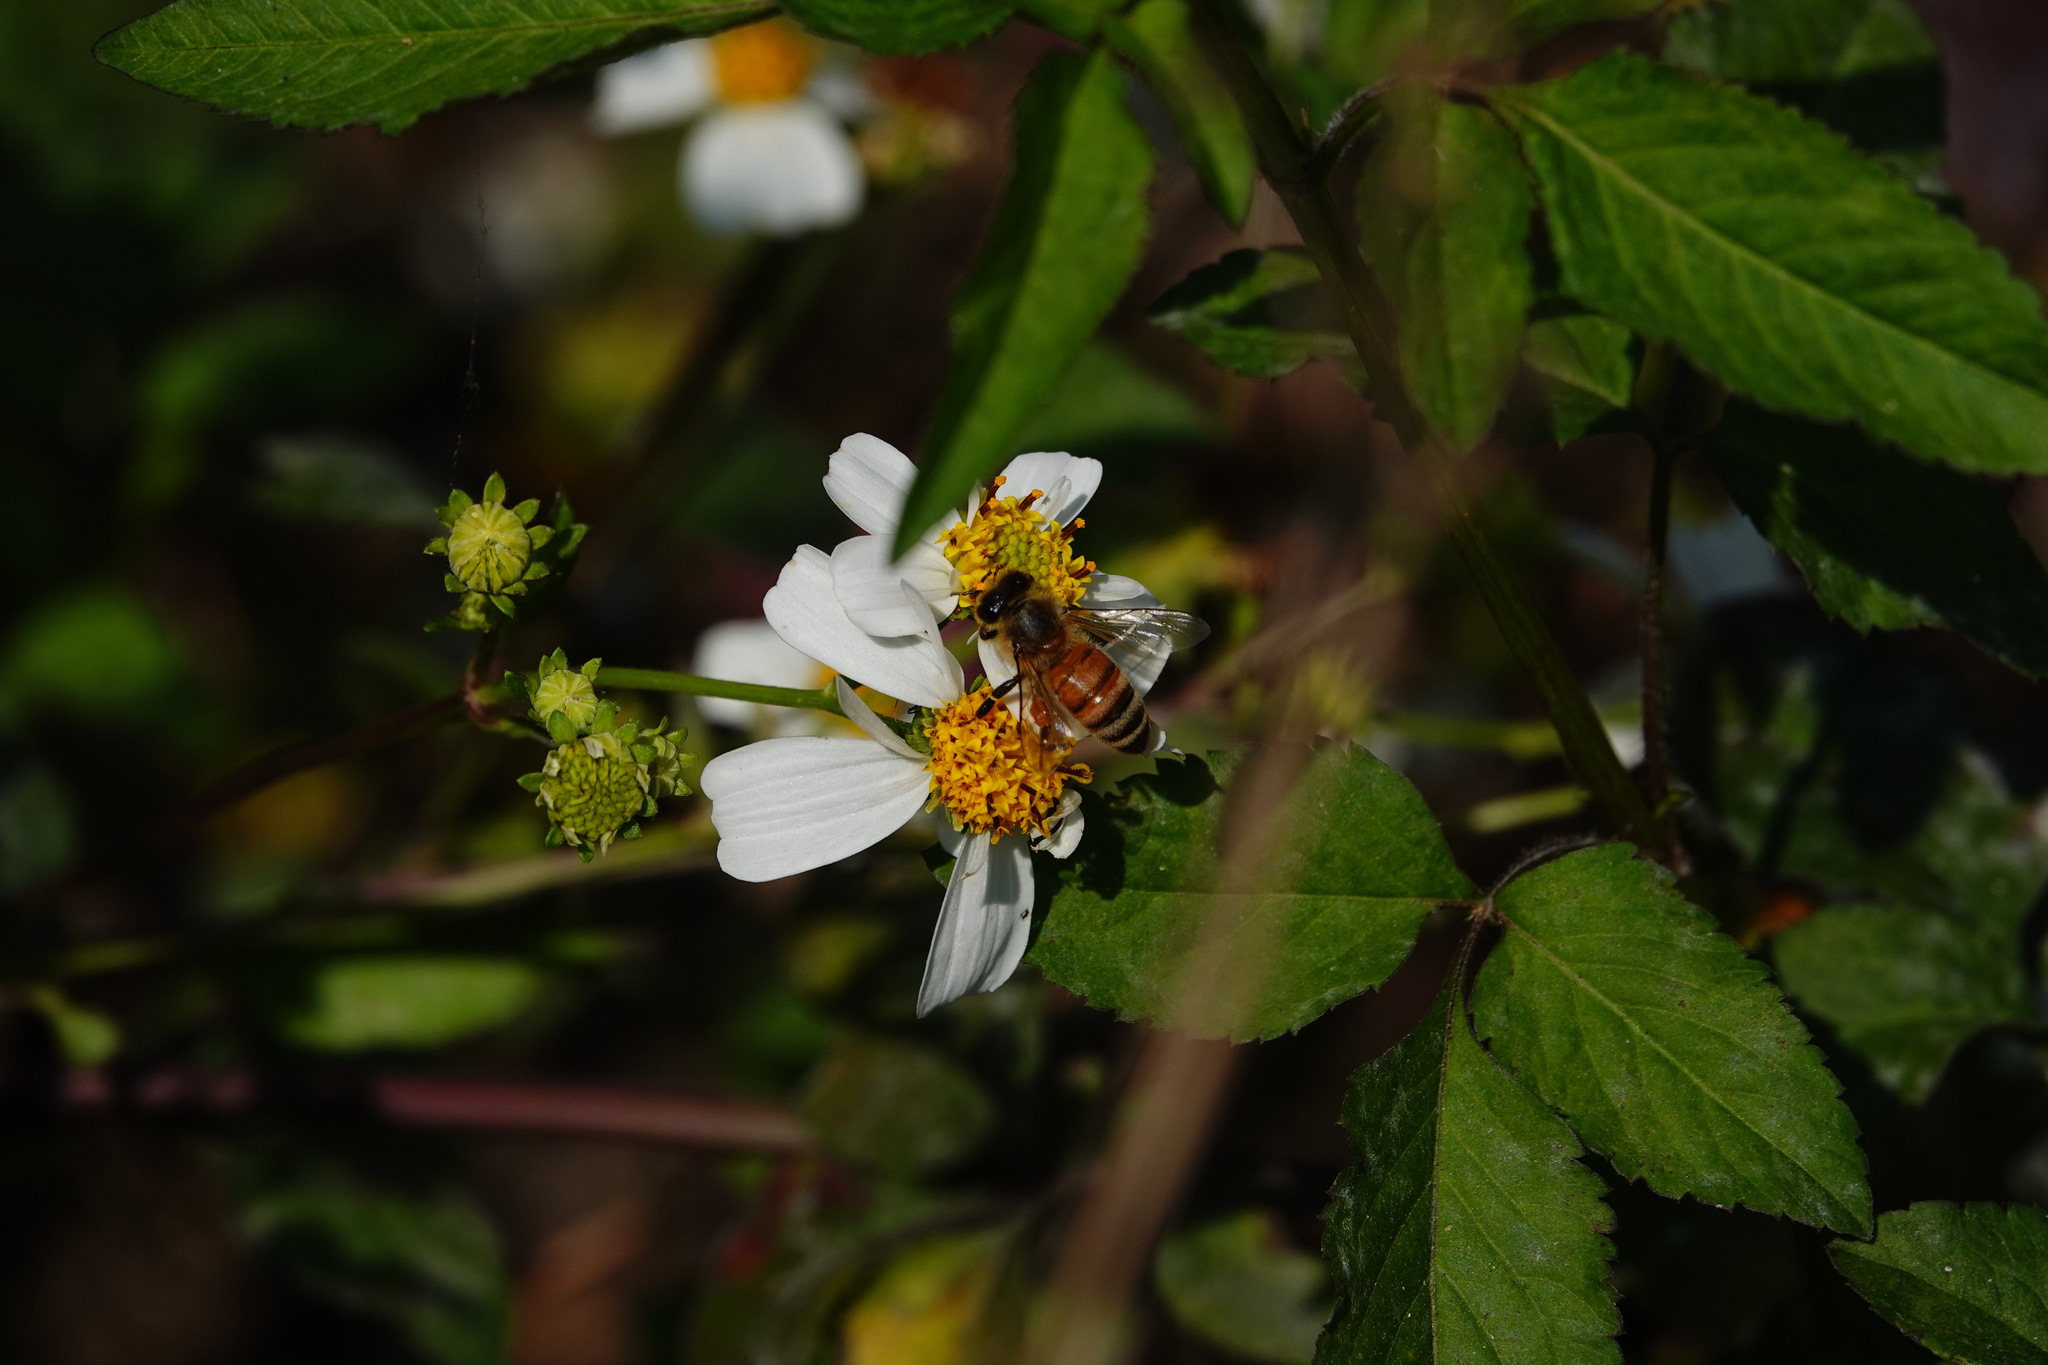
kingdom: Animalia
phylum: Arthropoda
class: Insecta
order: Hymenoptera
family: Apidae
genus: Apis
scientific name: Apis mellifera
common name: Honey bee
